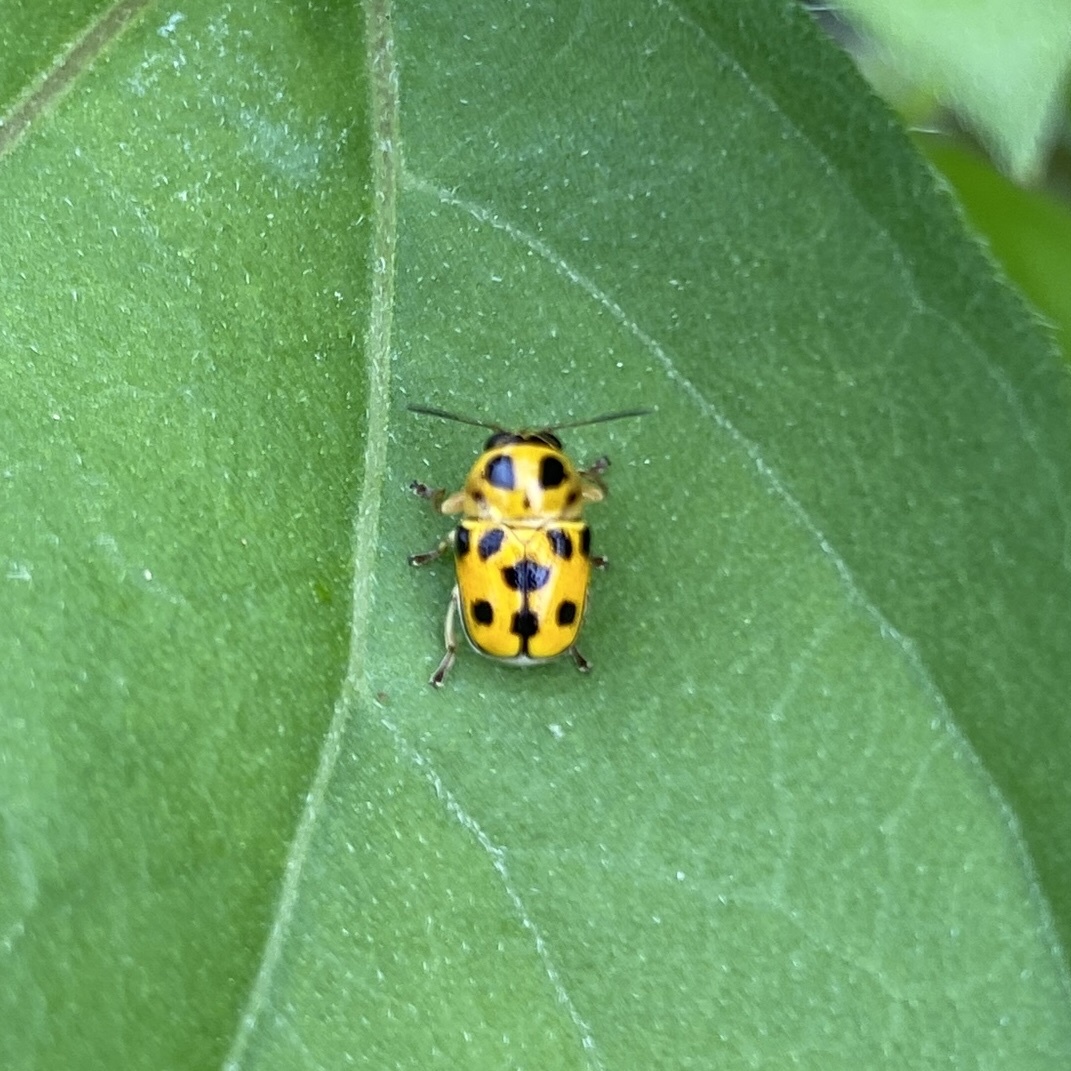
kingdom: Animalia
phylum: Arthropoda
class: Insecta
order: Coleoptera
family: Chrysomelidae
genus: Griburius
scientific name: Griburius rileyi
